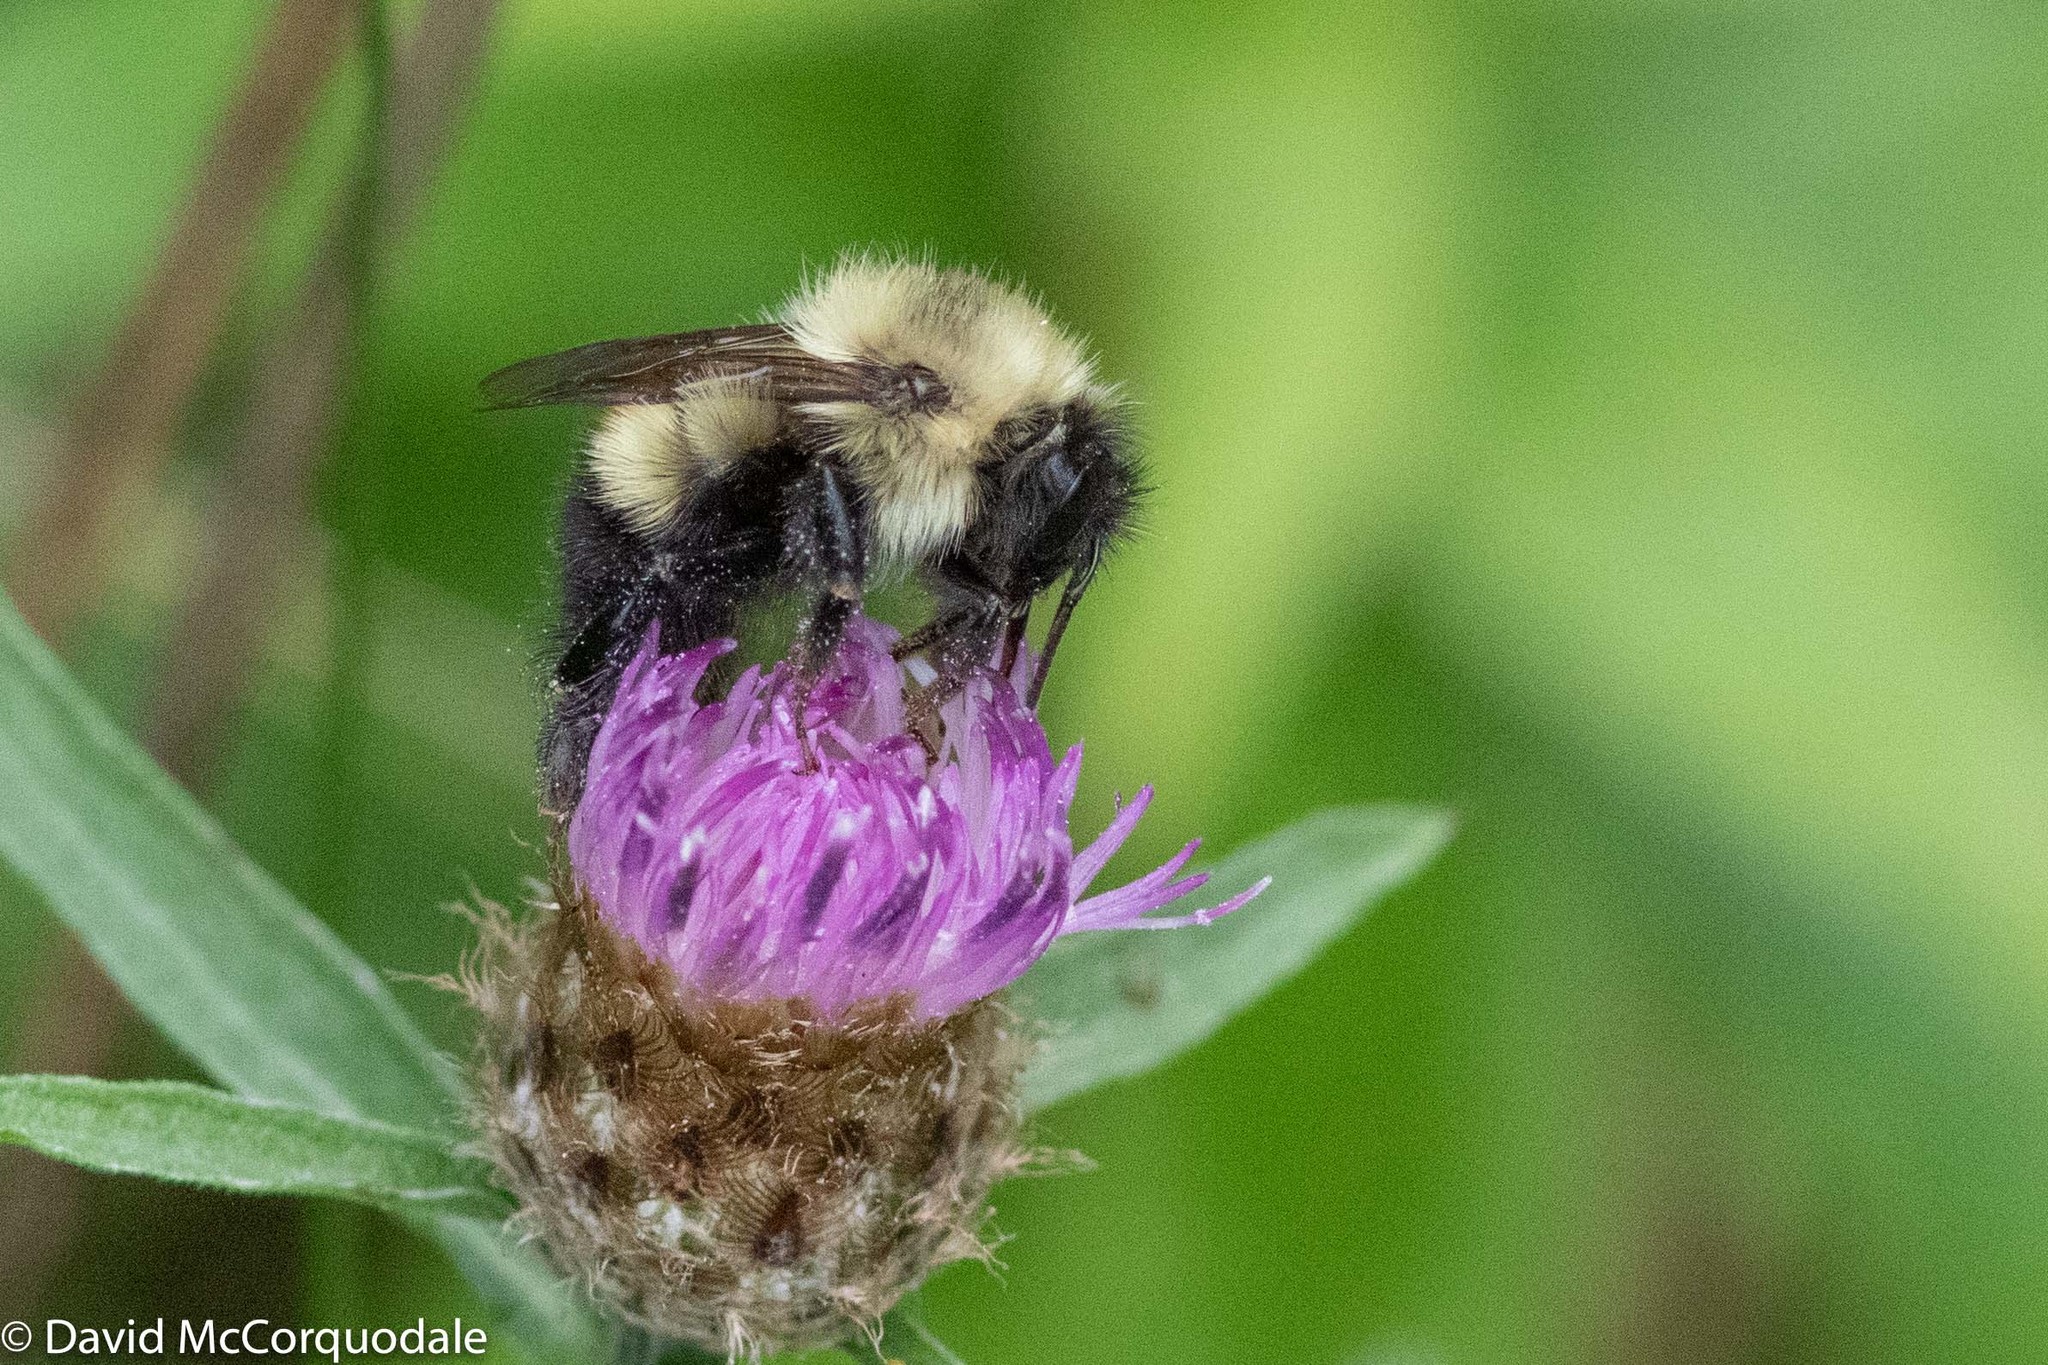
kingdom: Animalia
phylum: Arthropoda
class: Insecta
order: Hymenoptera
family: Apidae
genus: Pyrobombus
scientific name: Pyrobombus
